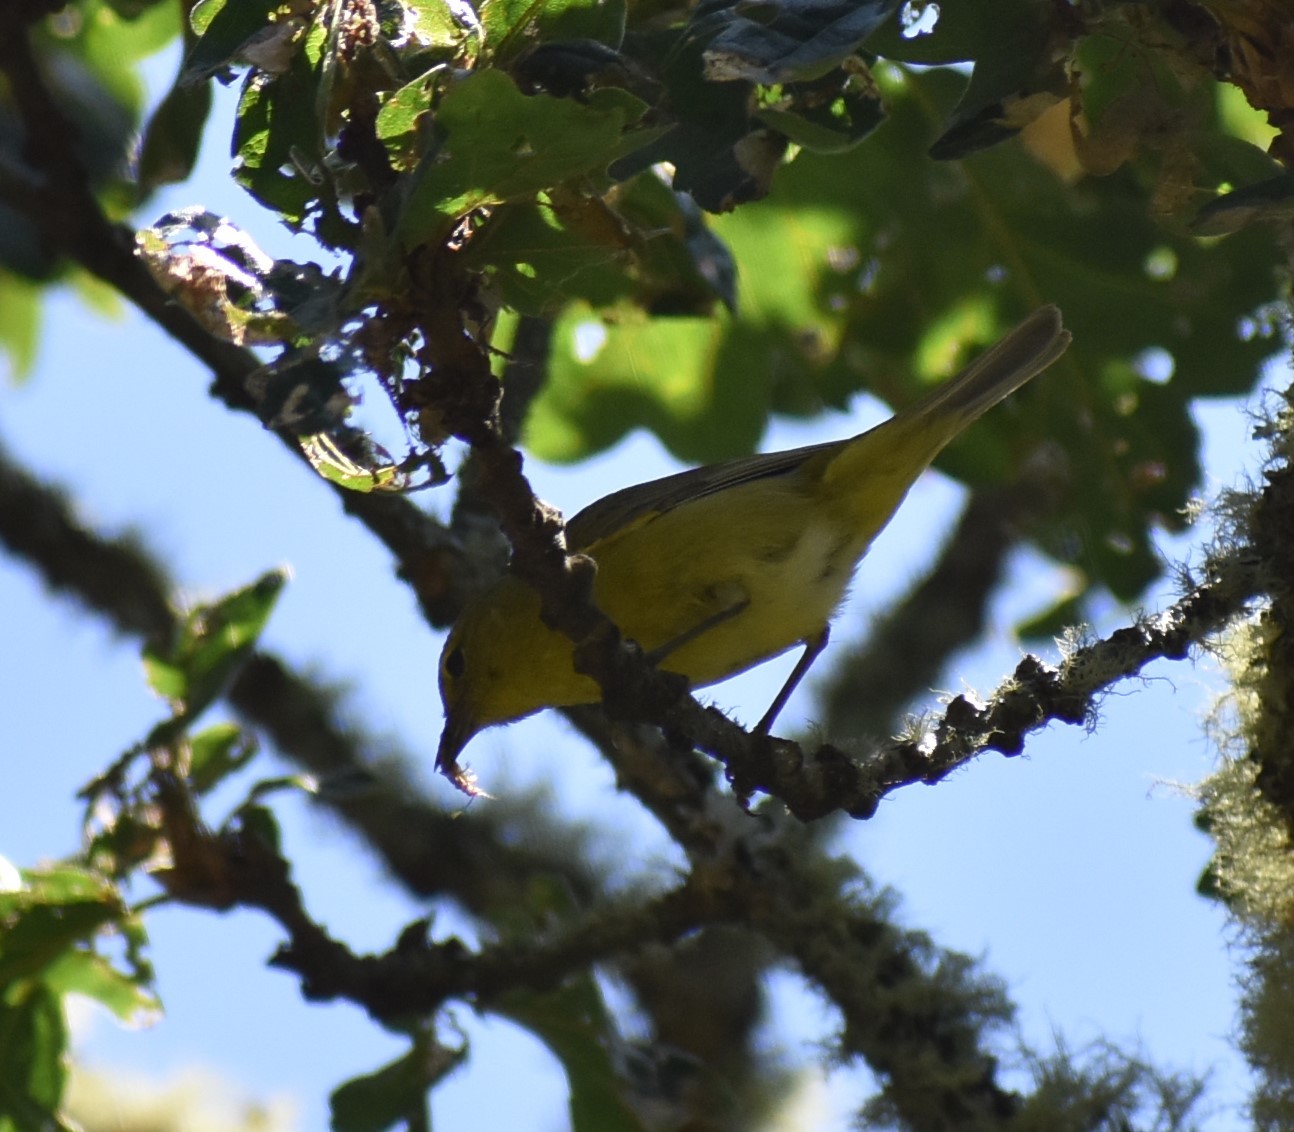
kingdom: Animalia
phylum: Chordata
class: Aves
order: Passeriformes
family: Parulidae
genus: Leiothlypis
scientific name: Leiothlypis celata
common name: Orange-crowned warbler
